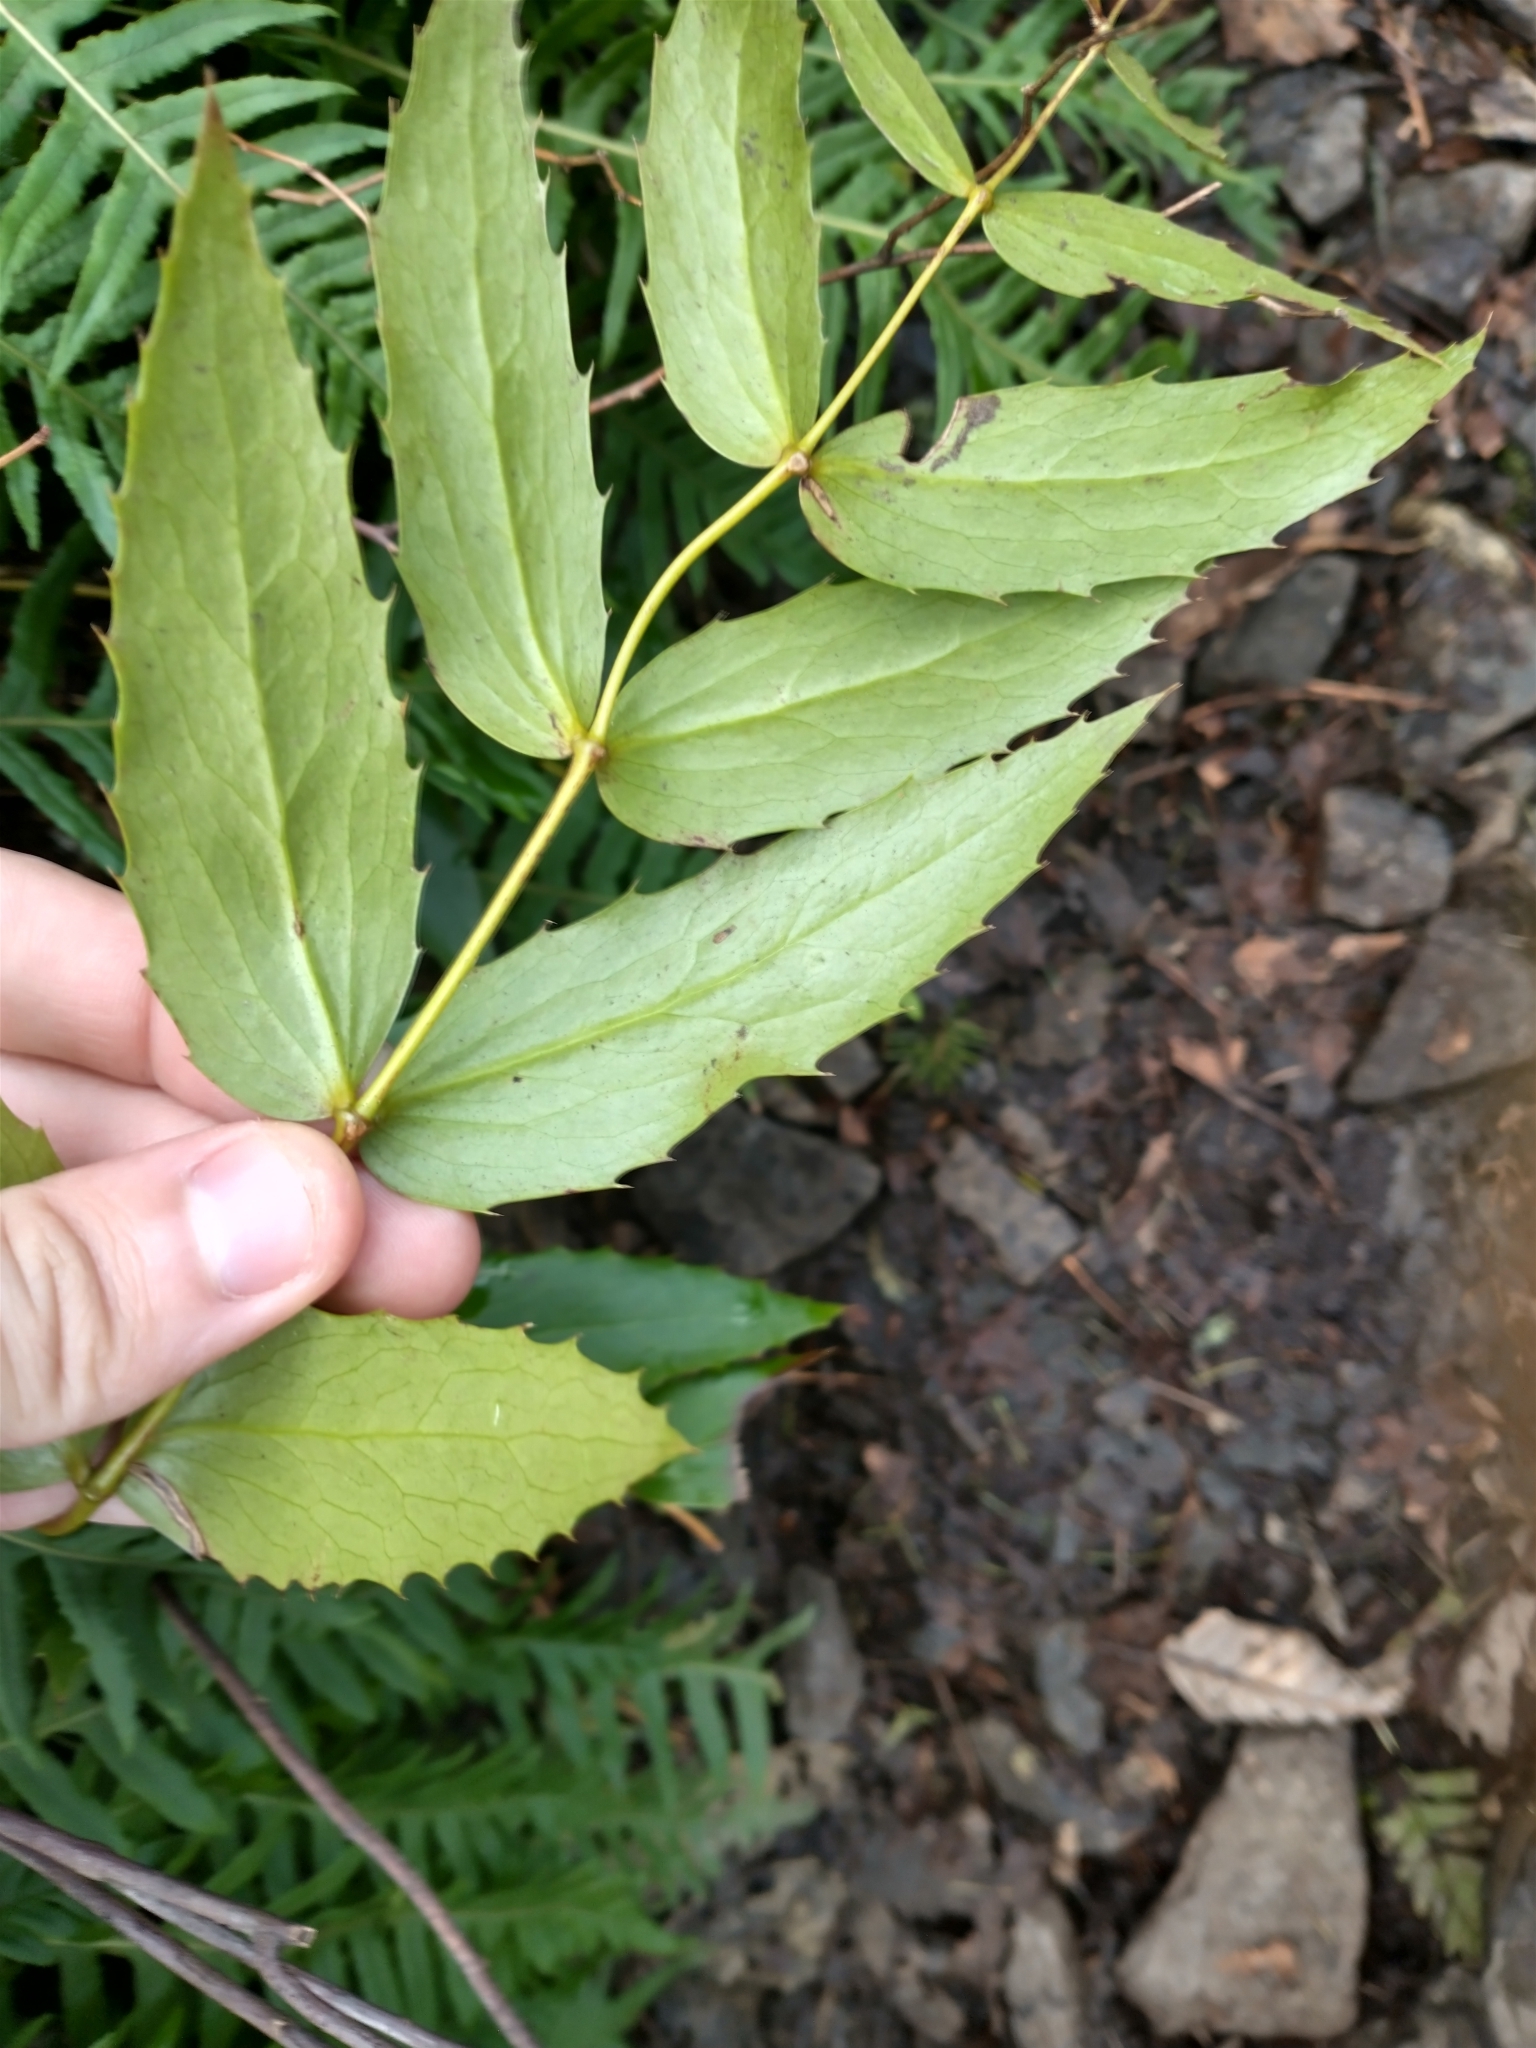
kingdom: Plantae
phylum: Tracheophyta
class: Magnoliopsida
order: Ranunculales
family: Berberidaceae
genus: Mahonia
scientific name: Mahonia nervosa
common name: Cascade oregon-grape
